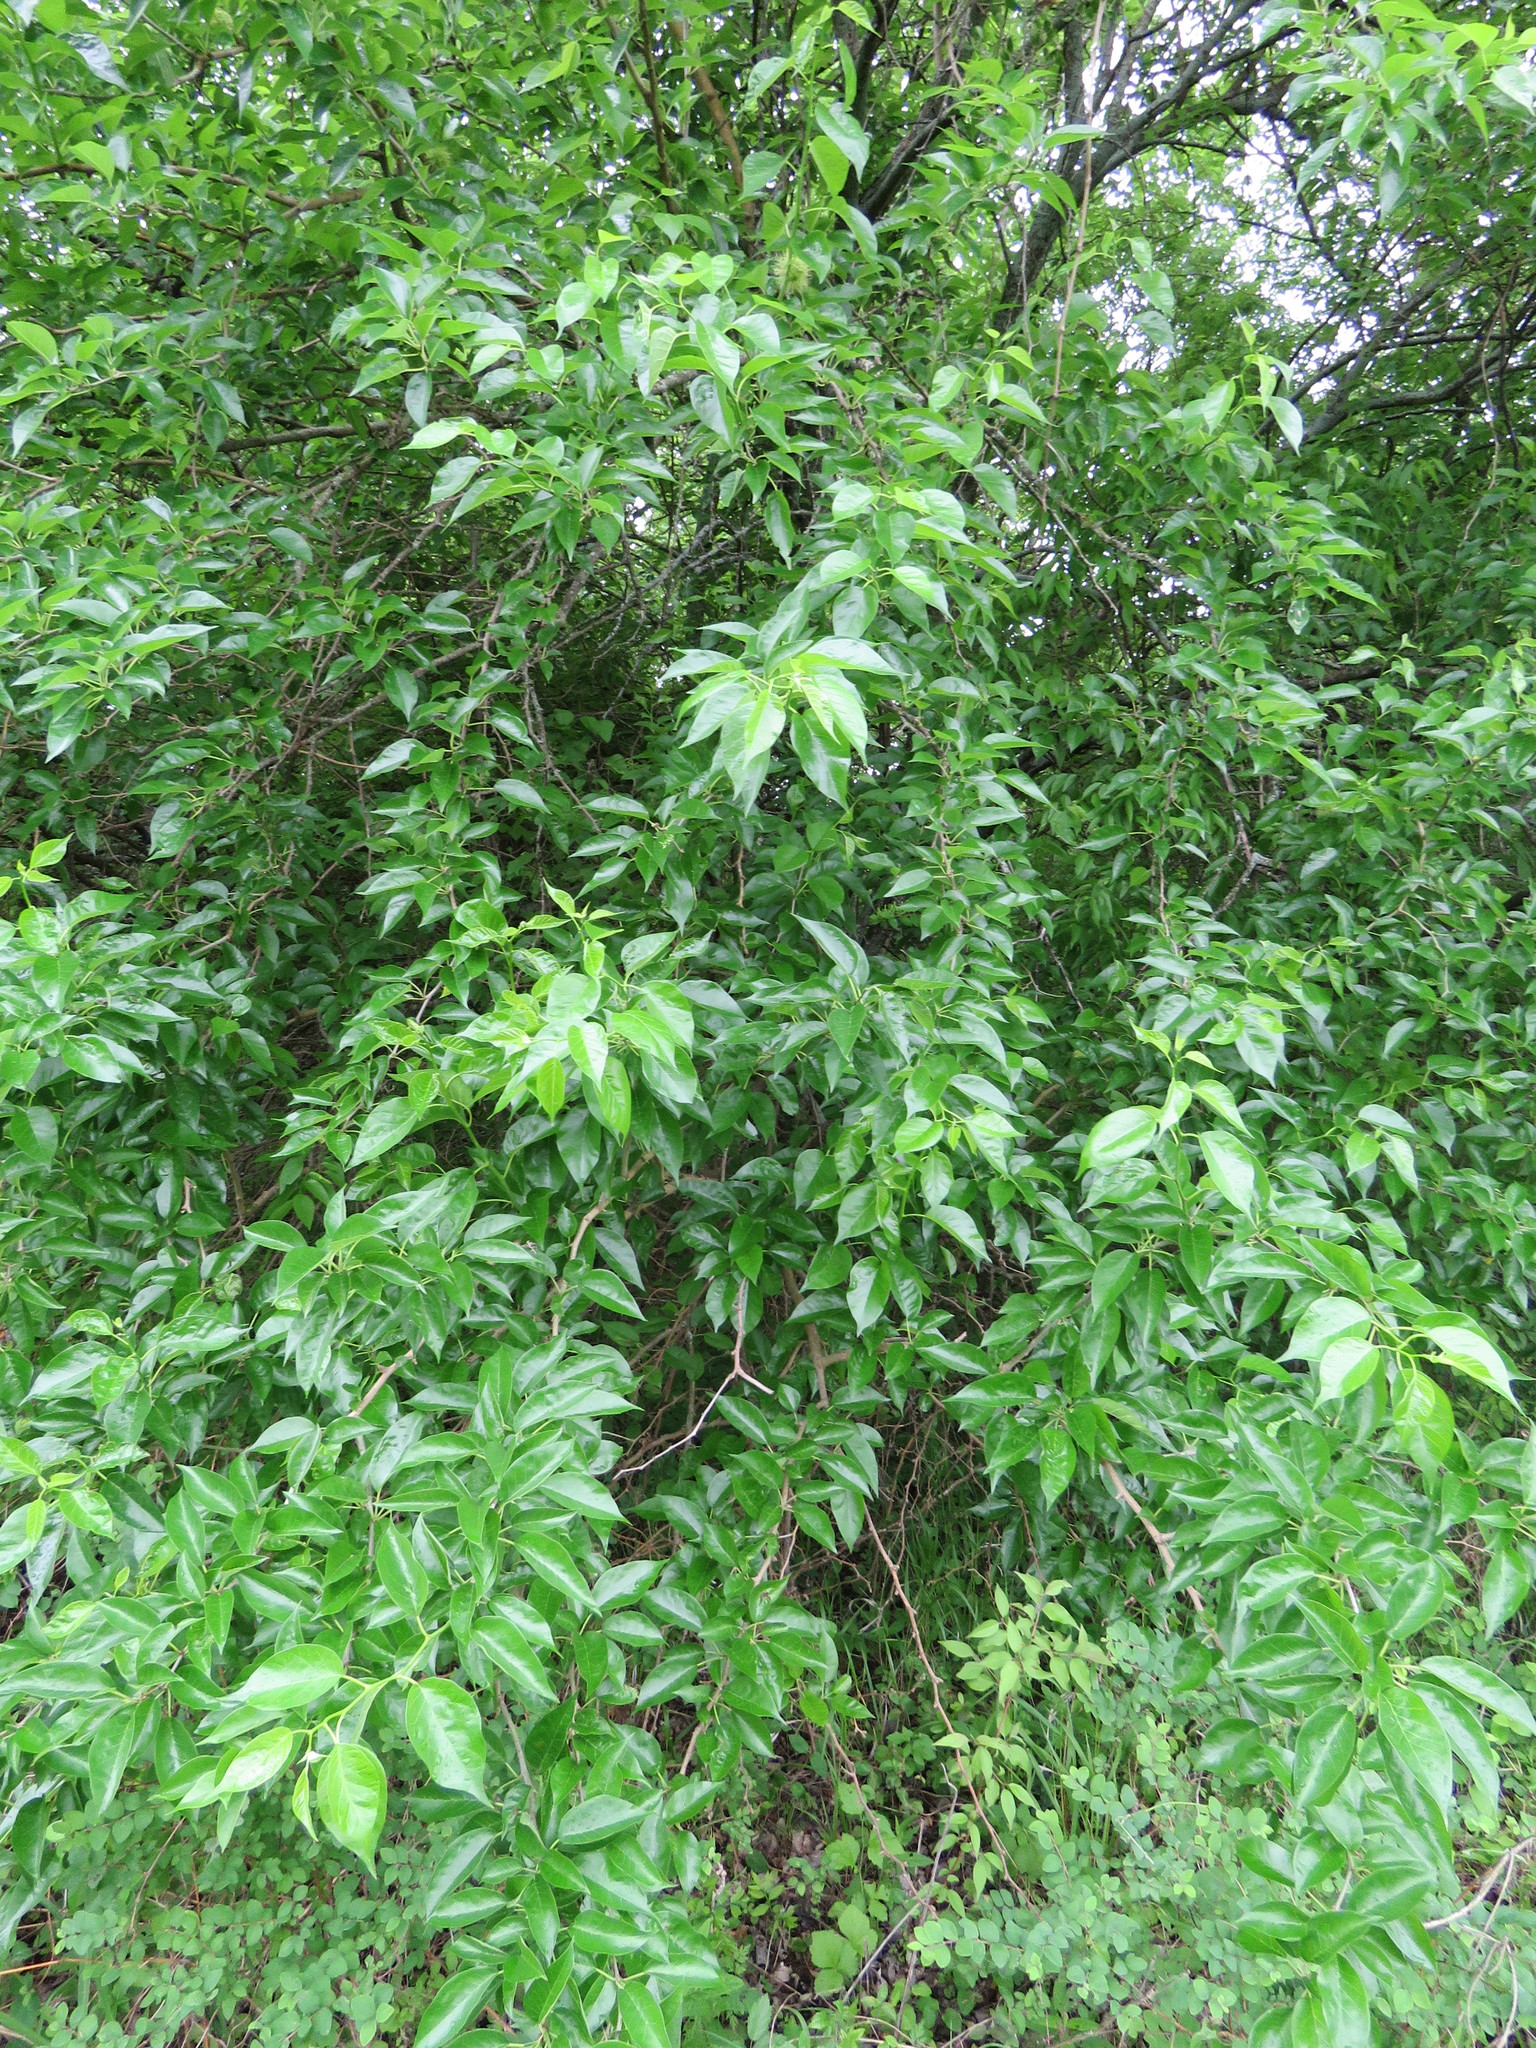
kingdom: Plantae
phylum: Tracheophyta
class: Magnoliopsida
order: Rosales
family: Moraceae
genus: Maclura
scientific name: Maclura pomifera
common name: Osage-orange
